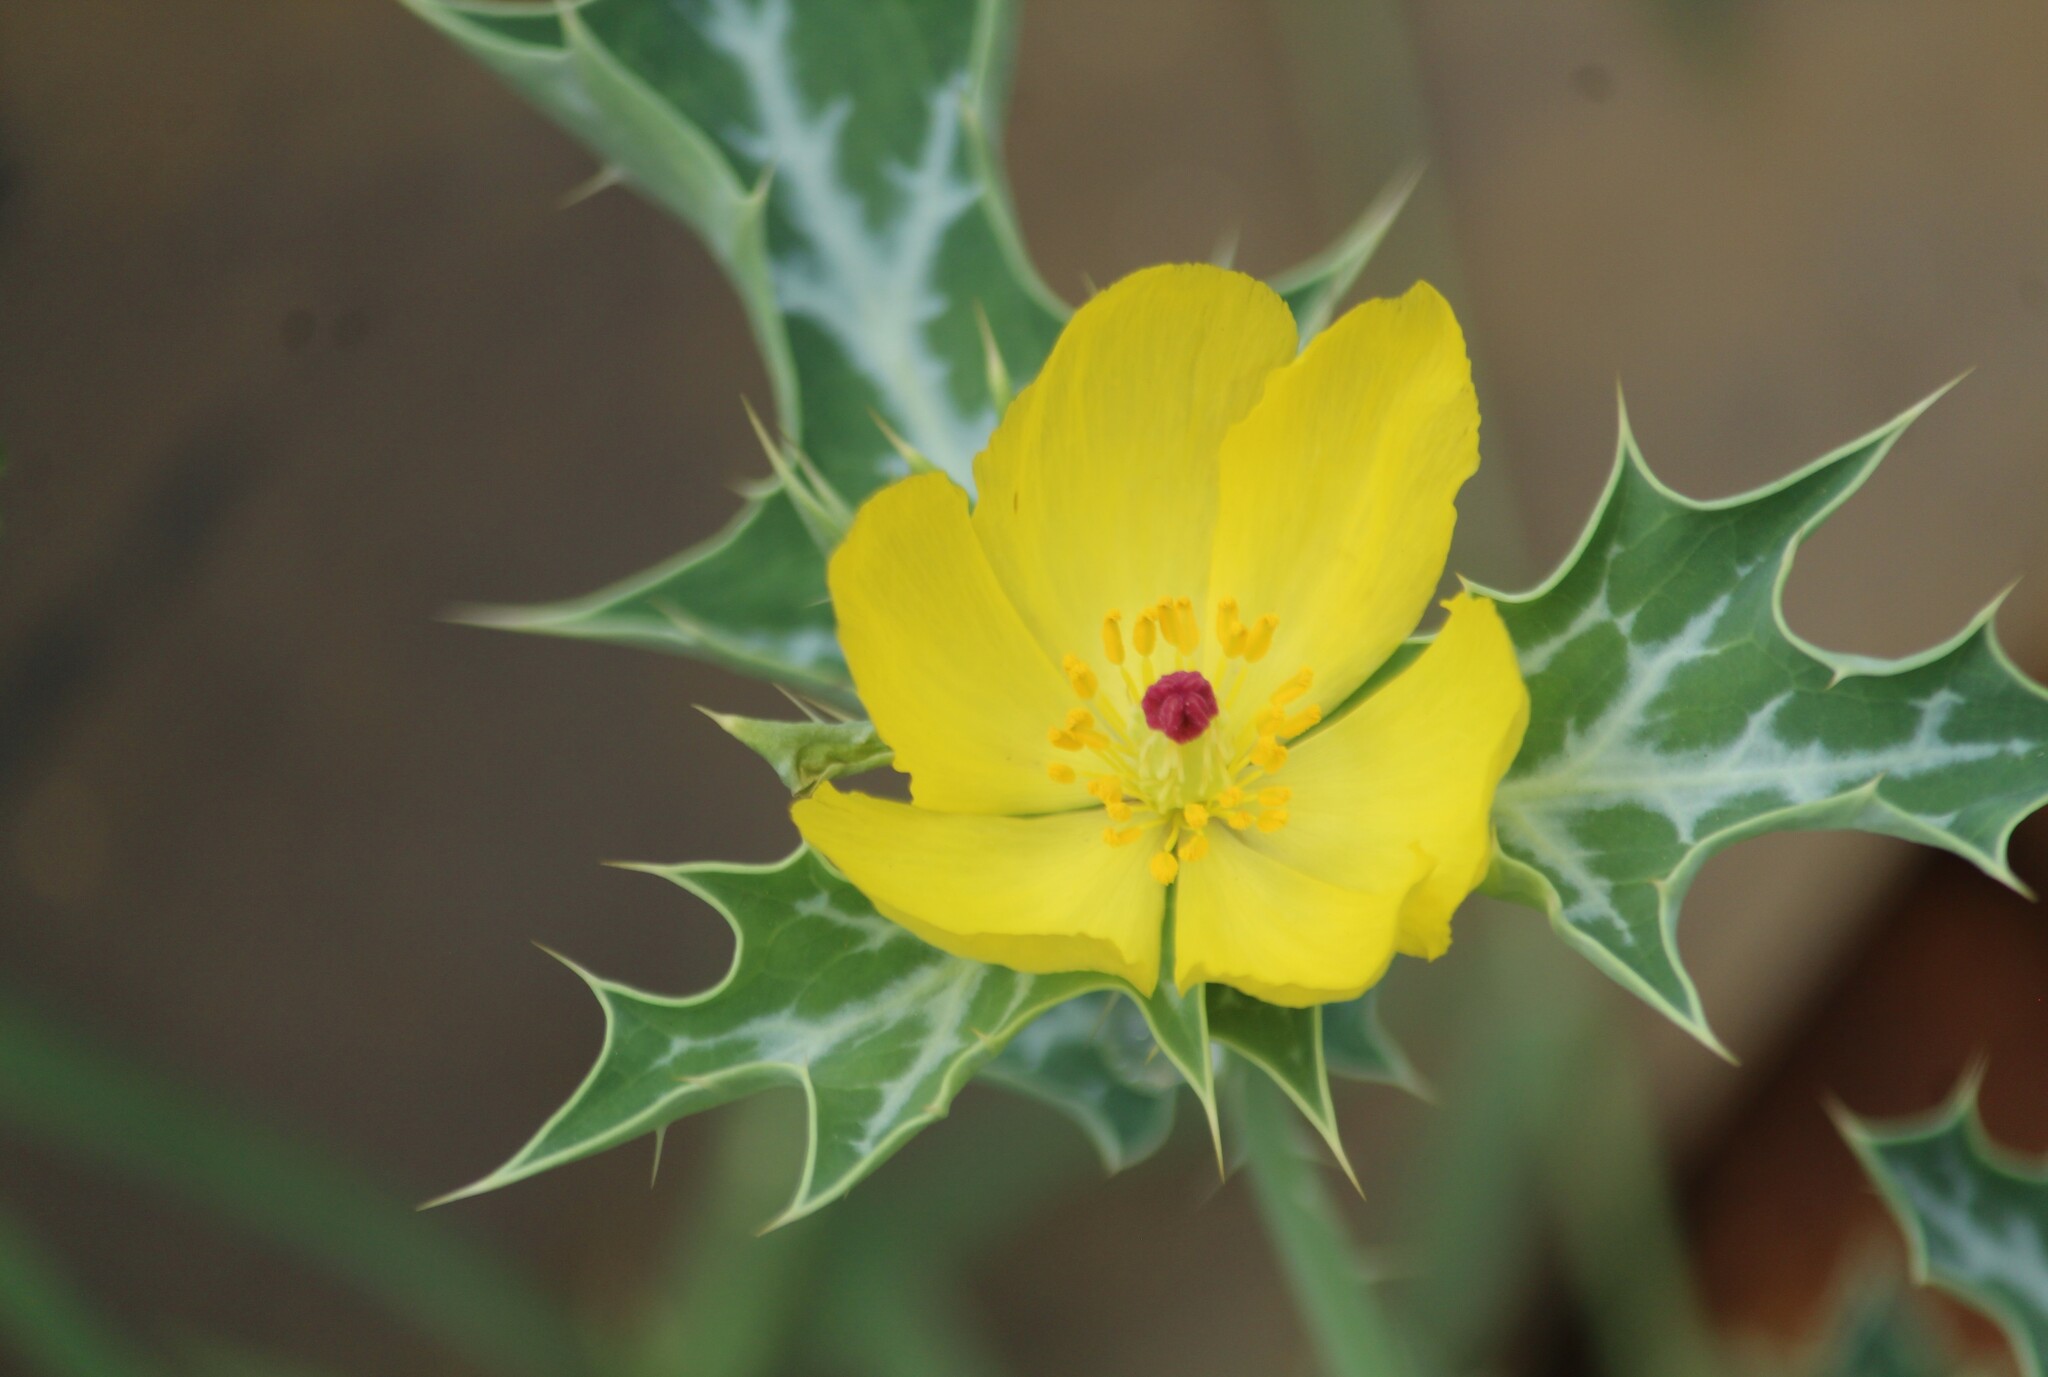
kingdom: Plantae
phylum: Tracheophyta
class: Magnoliopsida
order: Ranunculales
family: Papaveraceae
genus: Argemone
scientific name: Argemone mexicana
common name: Mexican poppy
